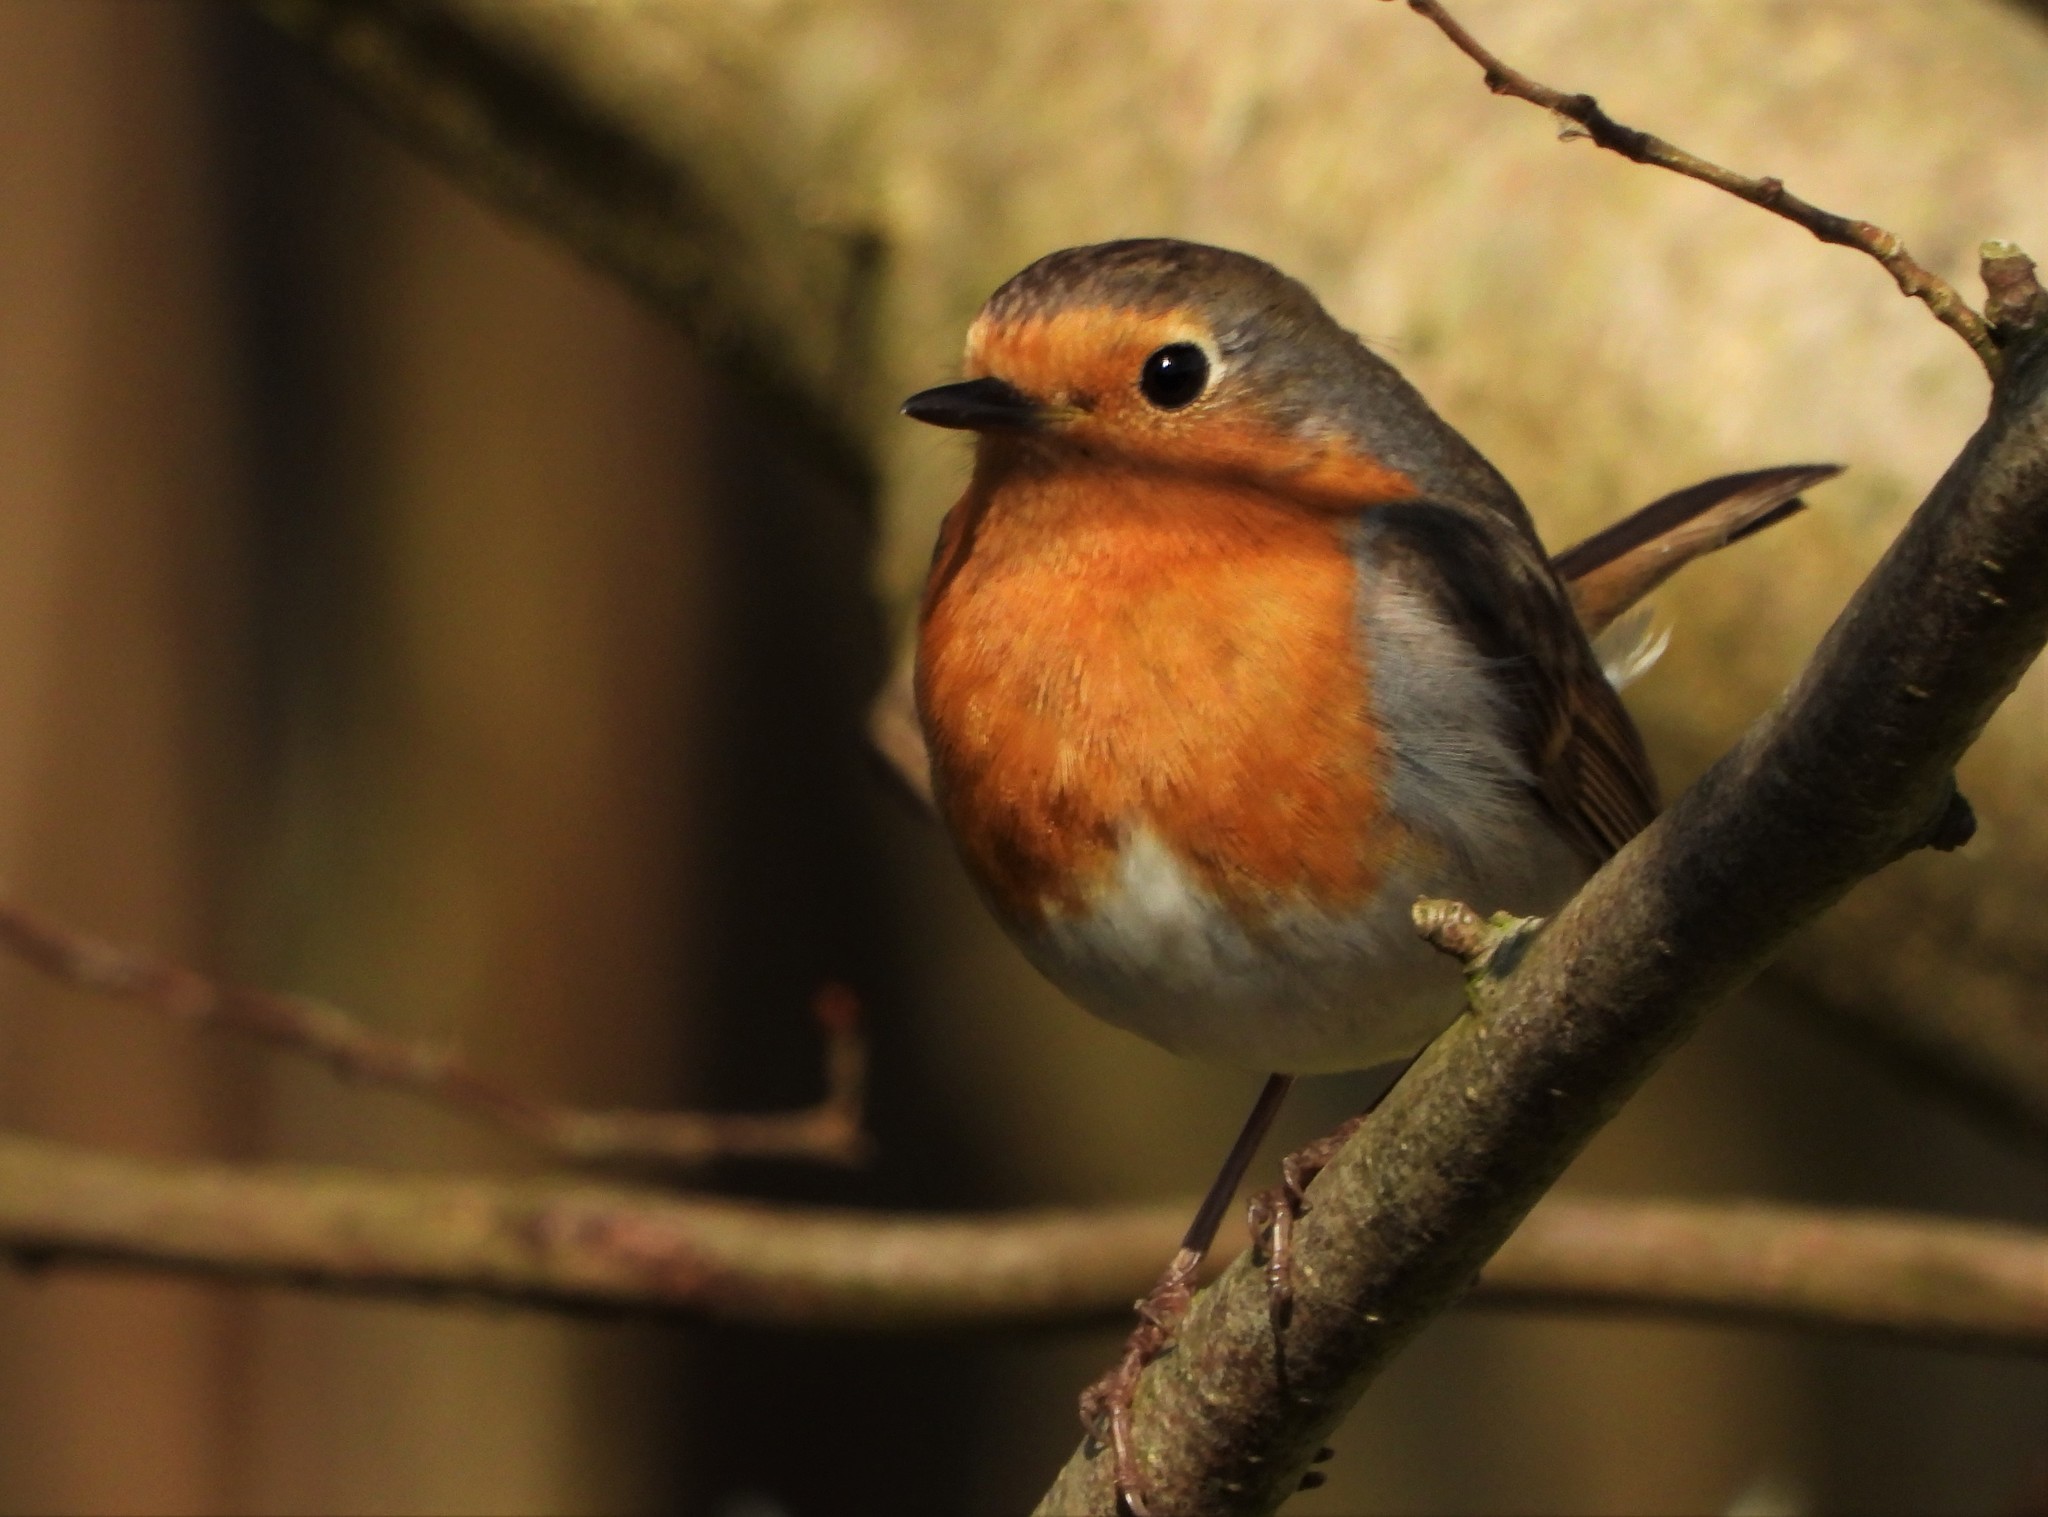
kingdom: Animalia
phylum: Chordata
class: Aves
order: Passeriformes
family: Muscicapidae
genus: Erithacus
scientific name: Erithacus rubecula
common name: European robin
